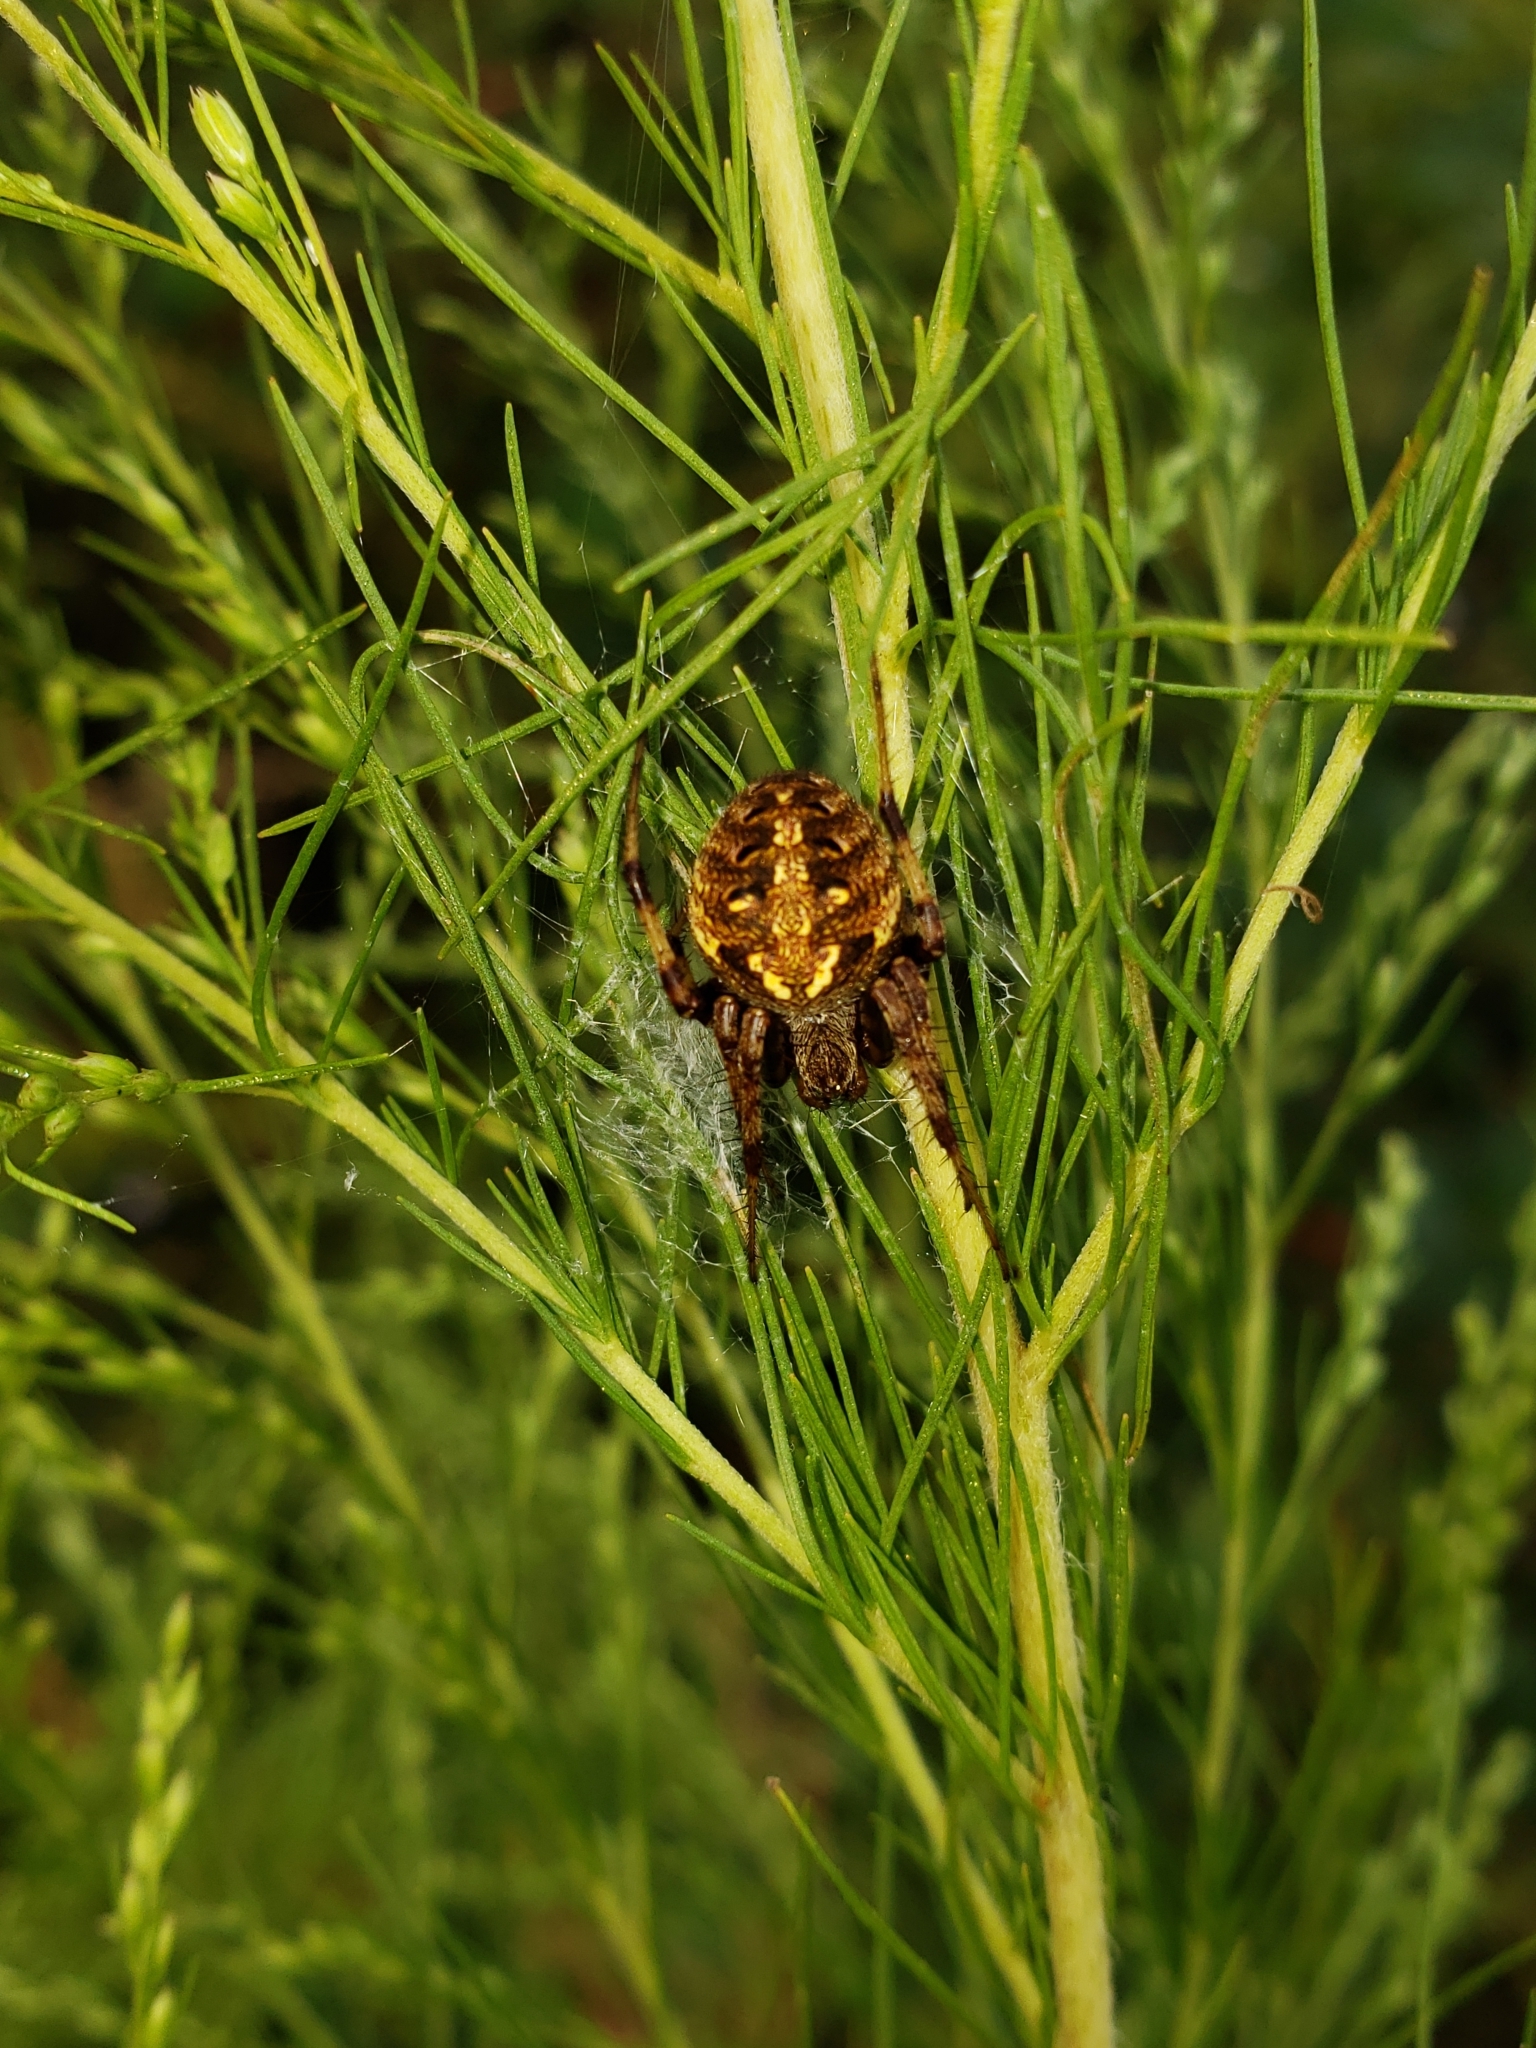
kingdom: Animalia
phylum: Arthropoda
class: Arachnida
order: Araneae
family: Araneidae
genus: Neoscona
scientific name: Neoscona arabesca
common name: Orb weavers
